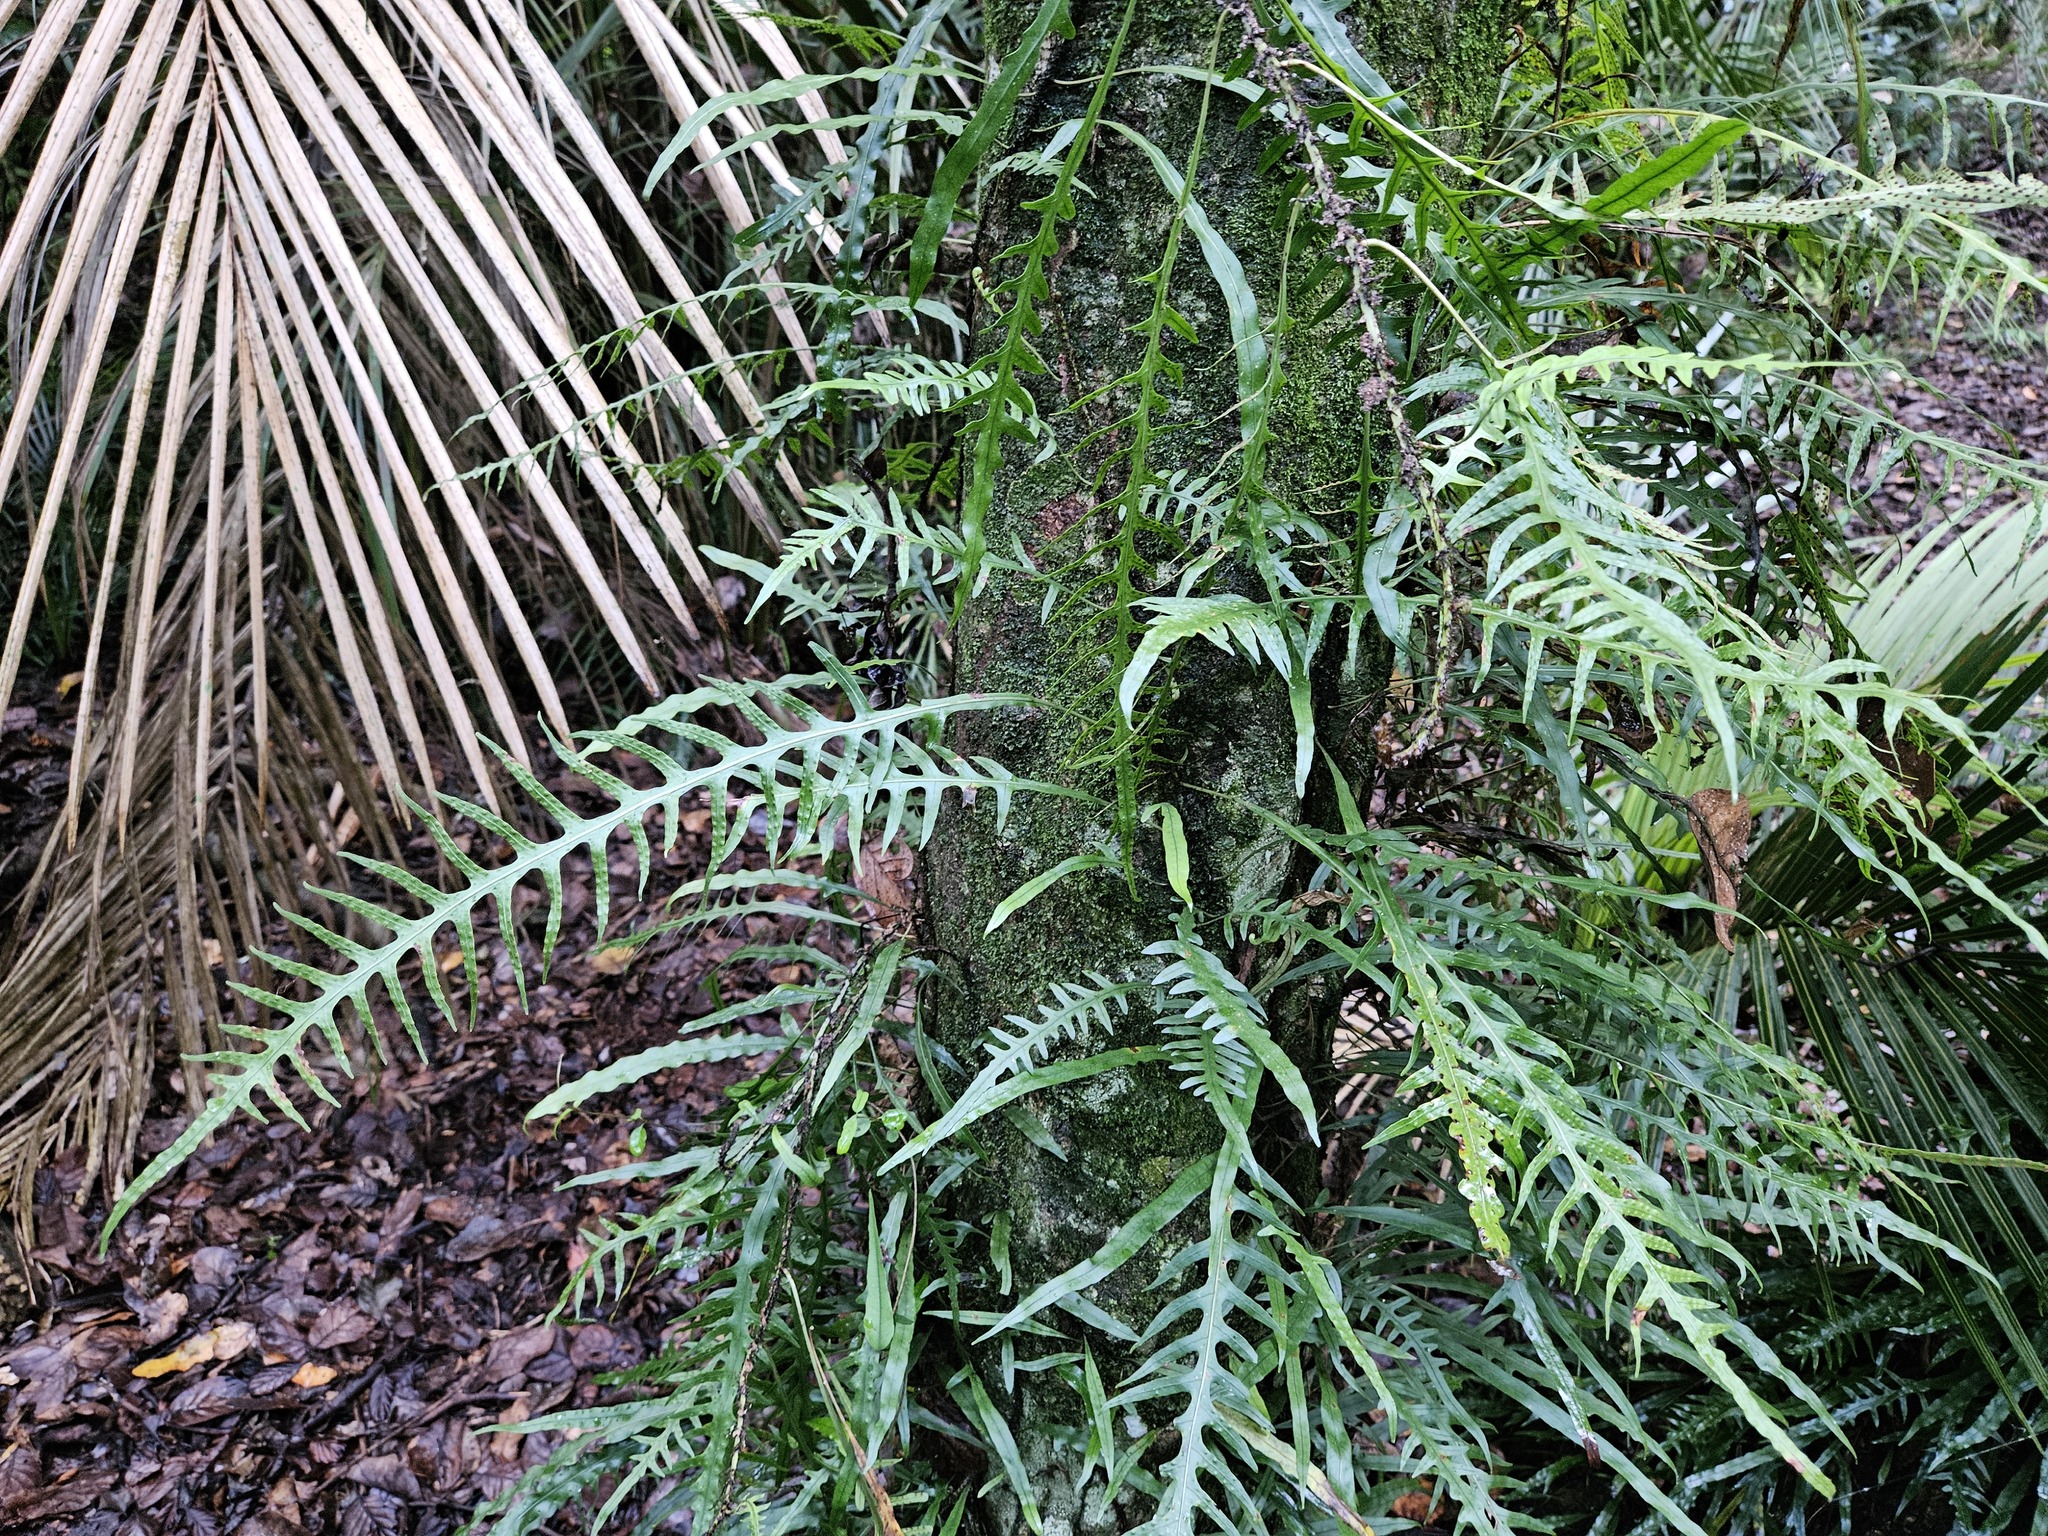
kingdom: Plantae
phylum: Tracheophyta
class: Polypodiopsida
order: Polypodiales
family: Polypodiaceae
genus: Lecanopteris
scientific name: Lecanopteris scandens
